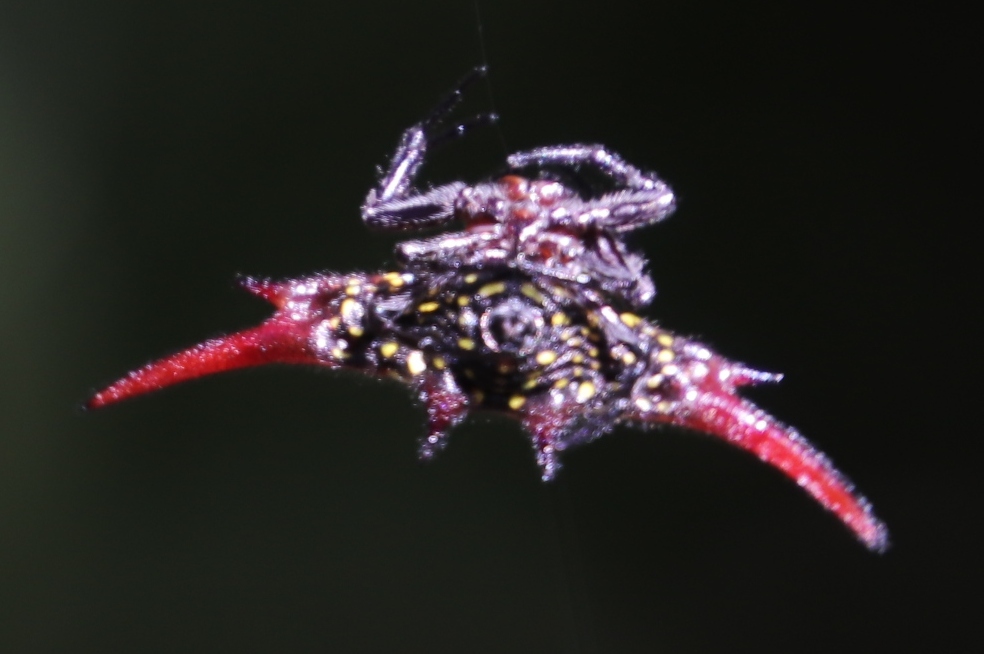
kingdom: Animalia
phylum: Arthropoda
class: Arachnida
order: Araneae
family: Araneidae
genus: Gasteracantha
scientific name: Gasteracantha versicolor
